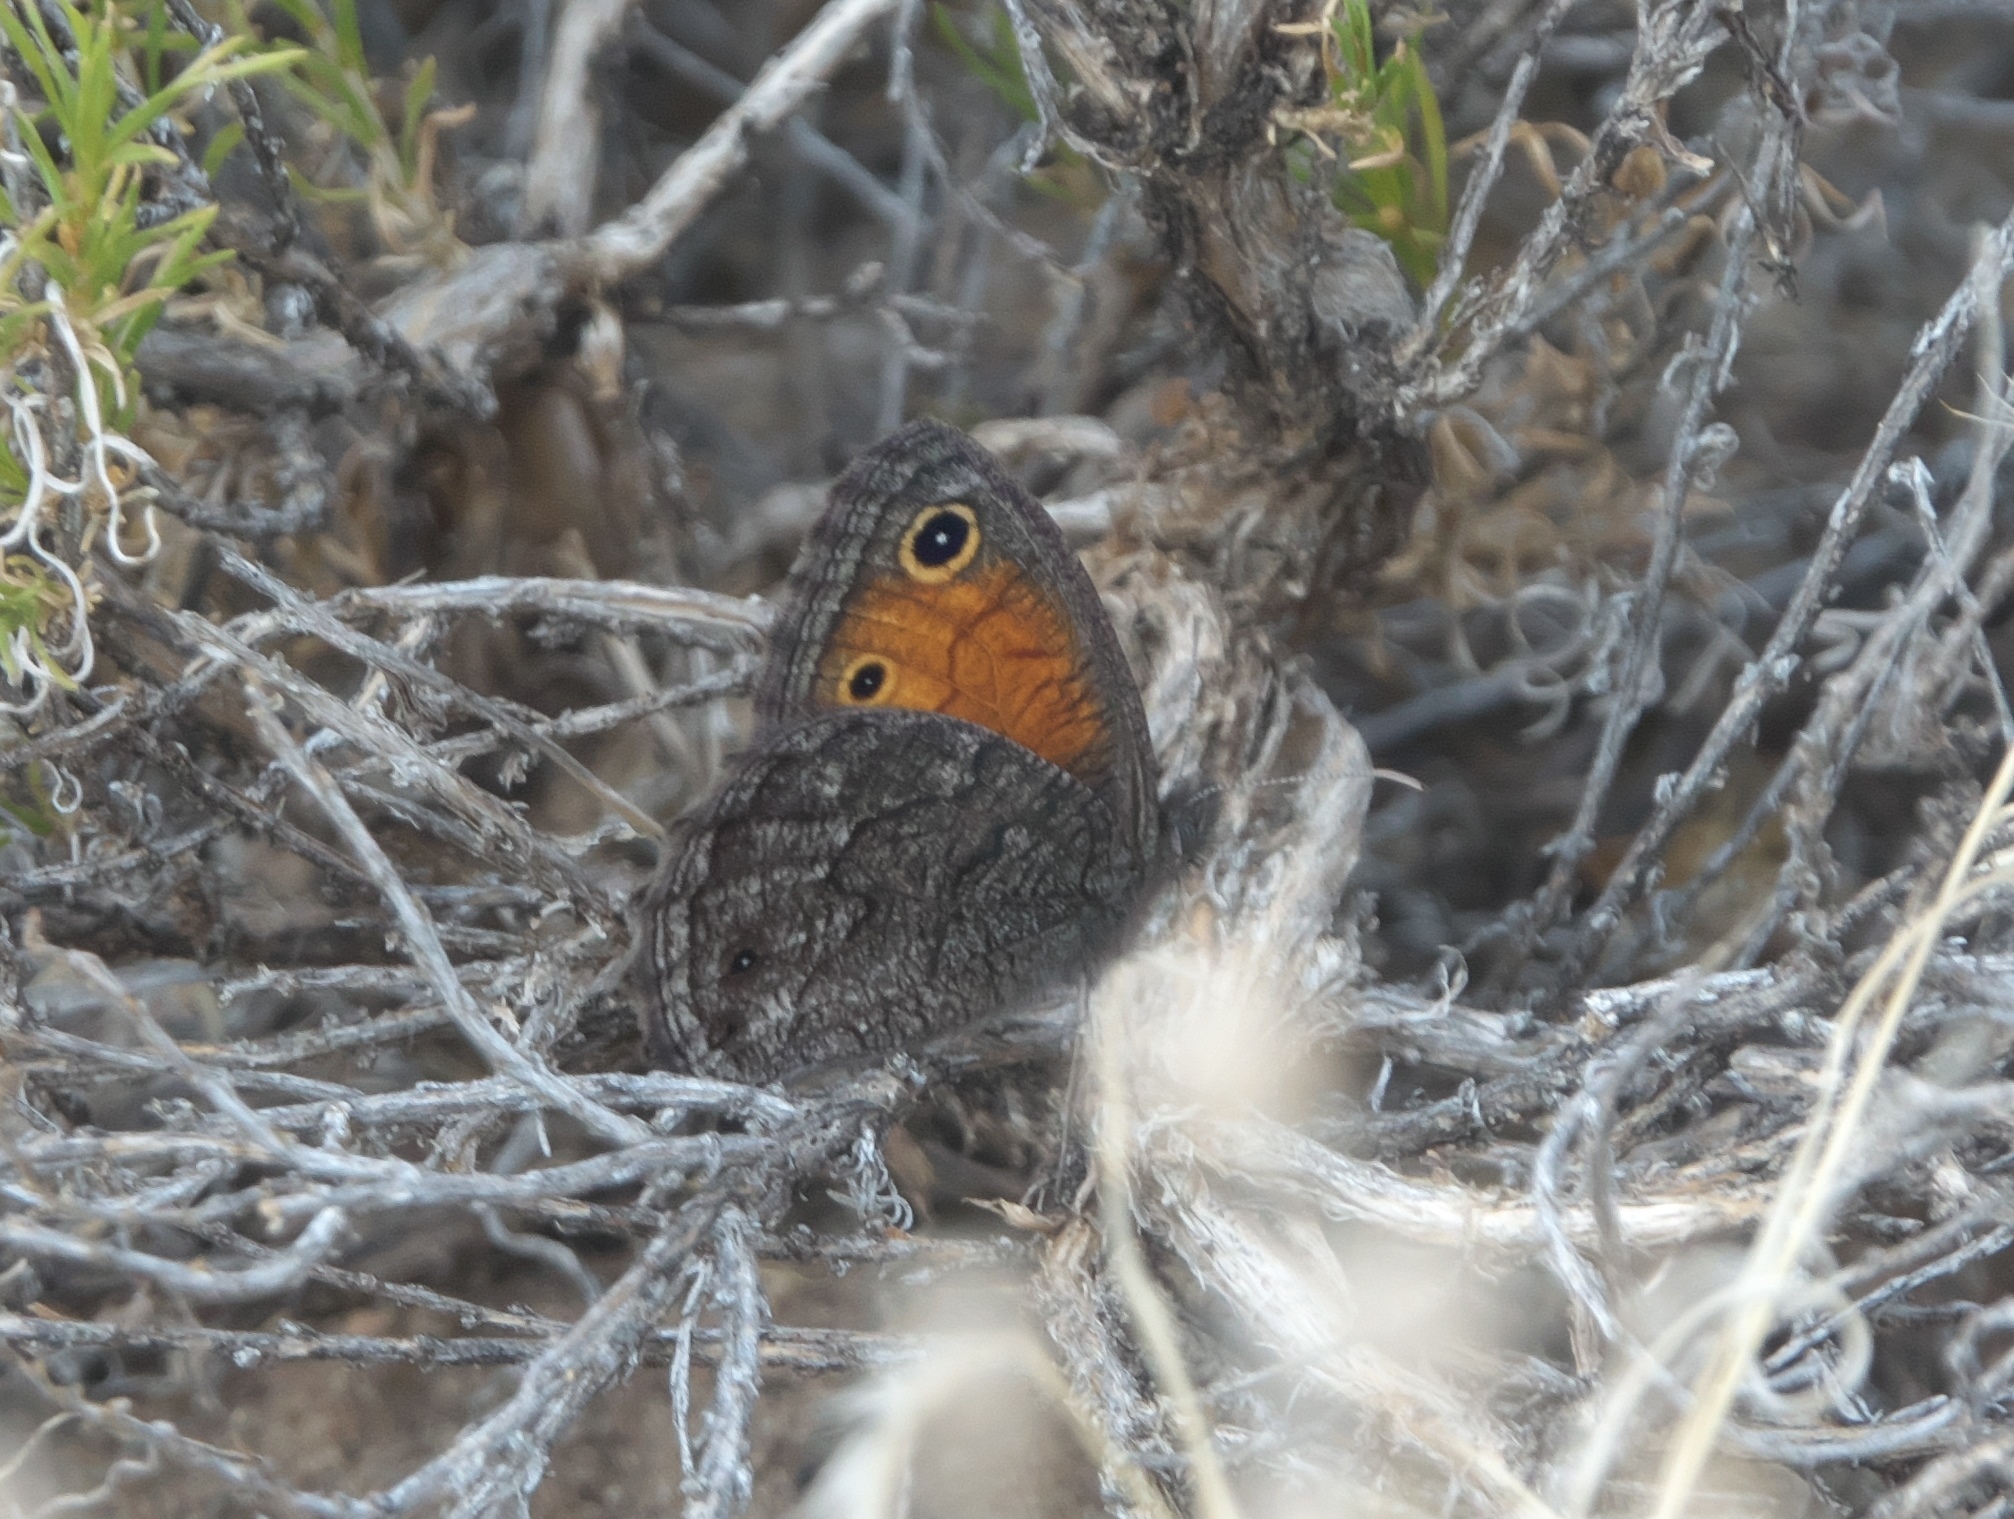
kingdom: Animalia
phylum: Arthropoda
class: Insecta
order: Lepidoptera
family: Nymphalidae
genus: Cercyonis
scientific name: Cercyonis meadi
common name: Mead's wood-nymph
